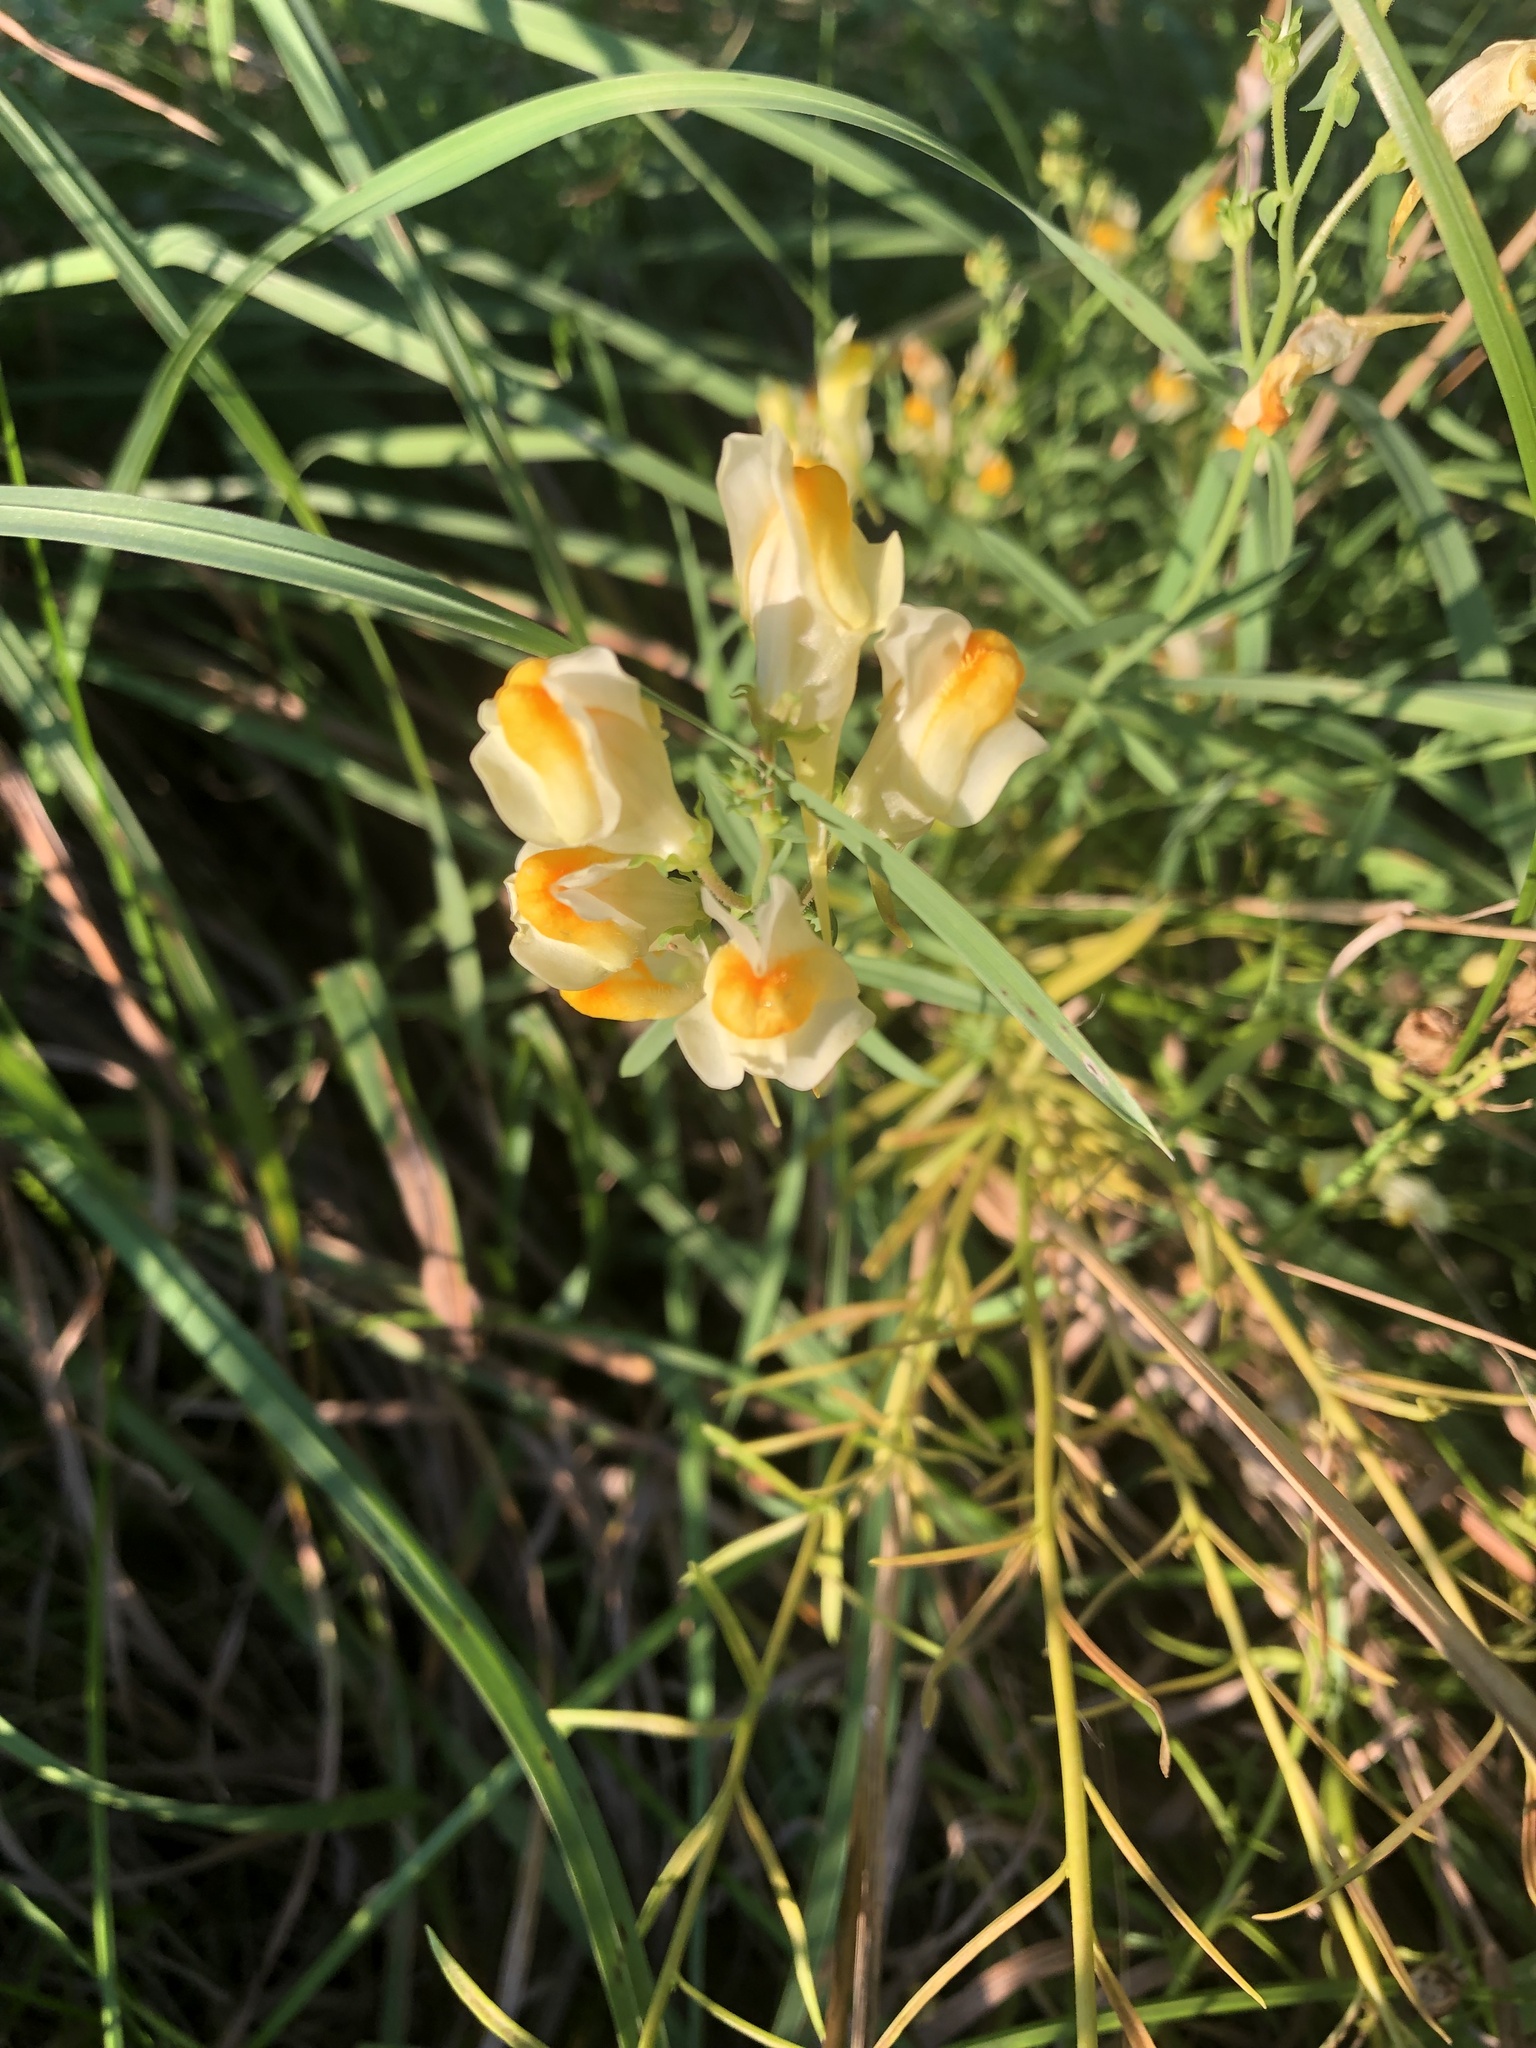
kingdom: Plantae
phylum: Tracheophyta
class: Magnoliopsida
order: Lamiales
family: Plantaginaceae
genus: Linaria
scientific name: Linaria vulgaris
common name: Butter and eggs
